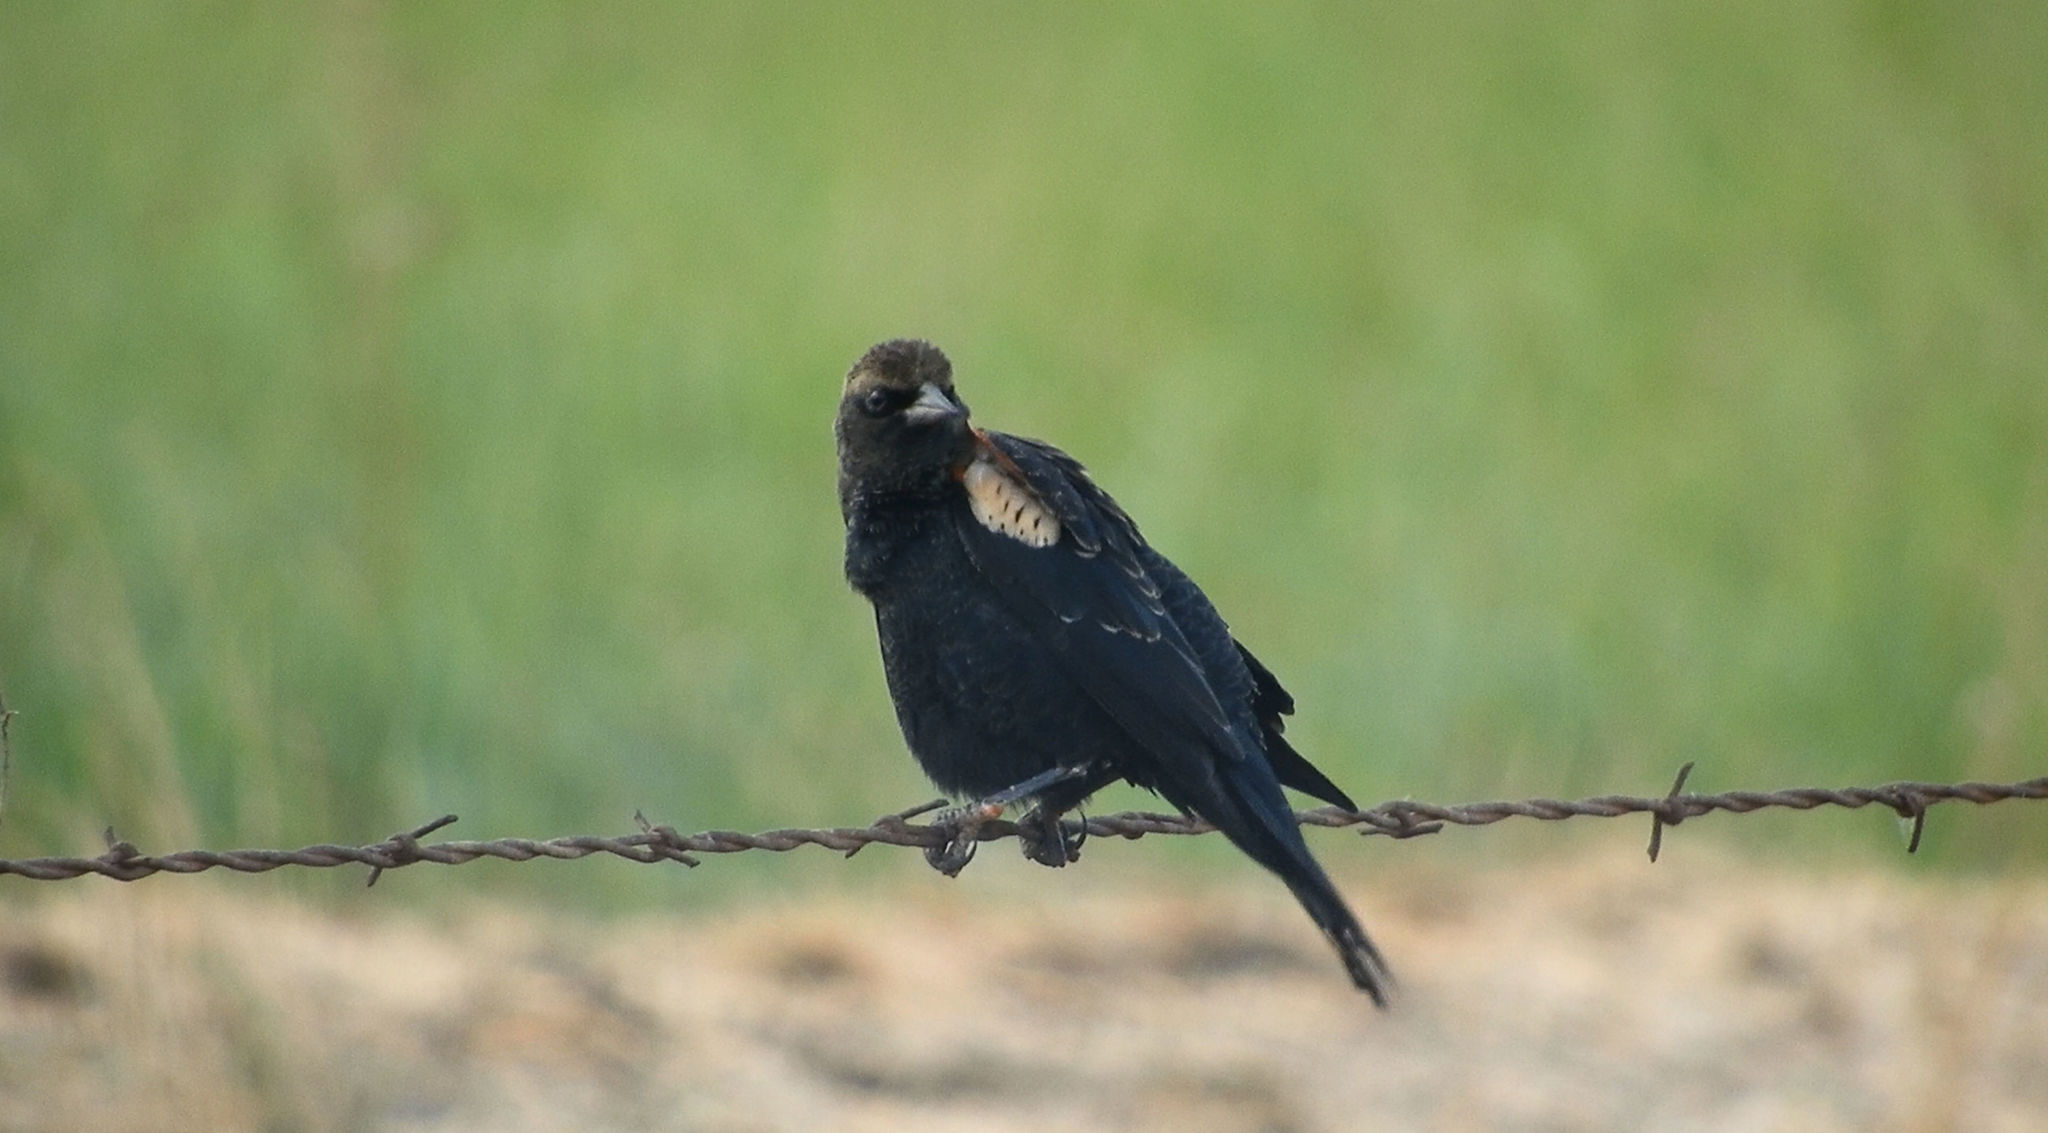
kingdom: Animalia
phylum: Chordata
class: Aves
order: Passeriformes
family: Icteridae
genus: Agelaius
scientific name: Agelaius tricolor
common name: Tricolored blackbird
